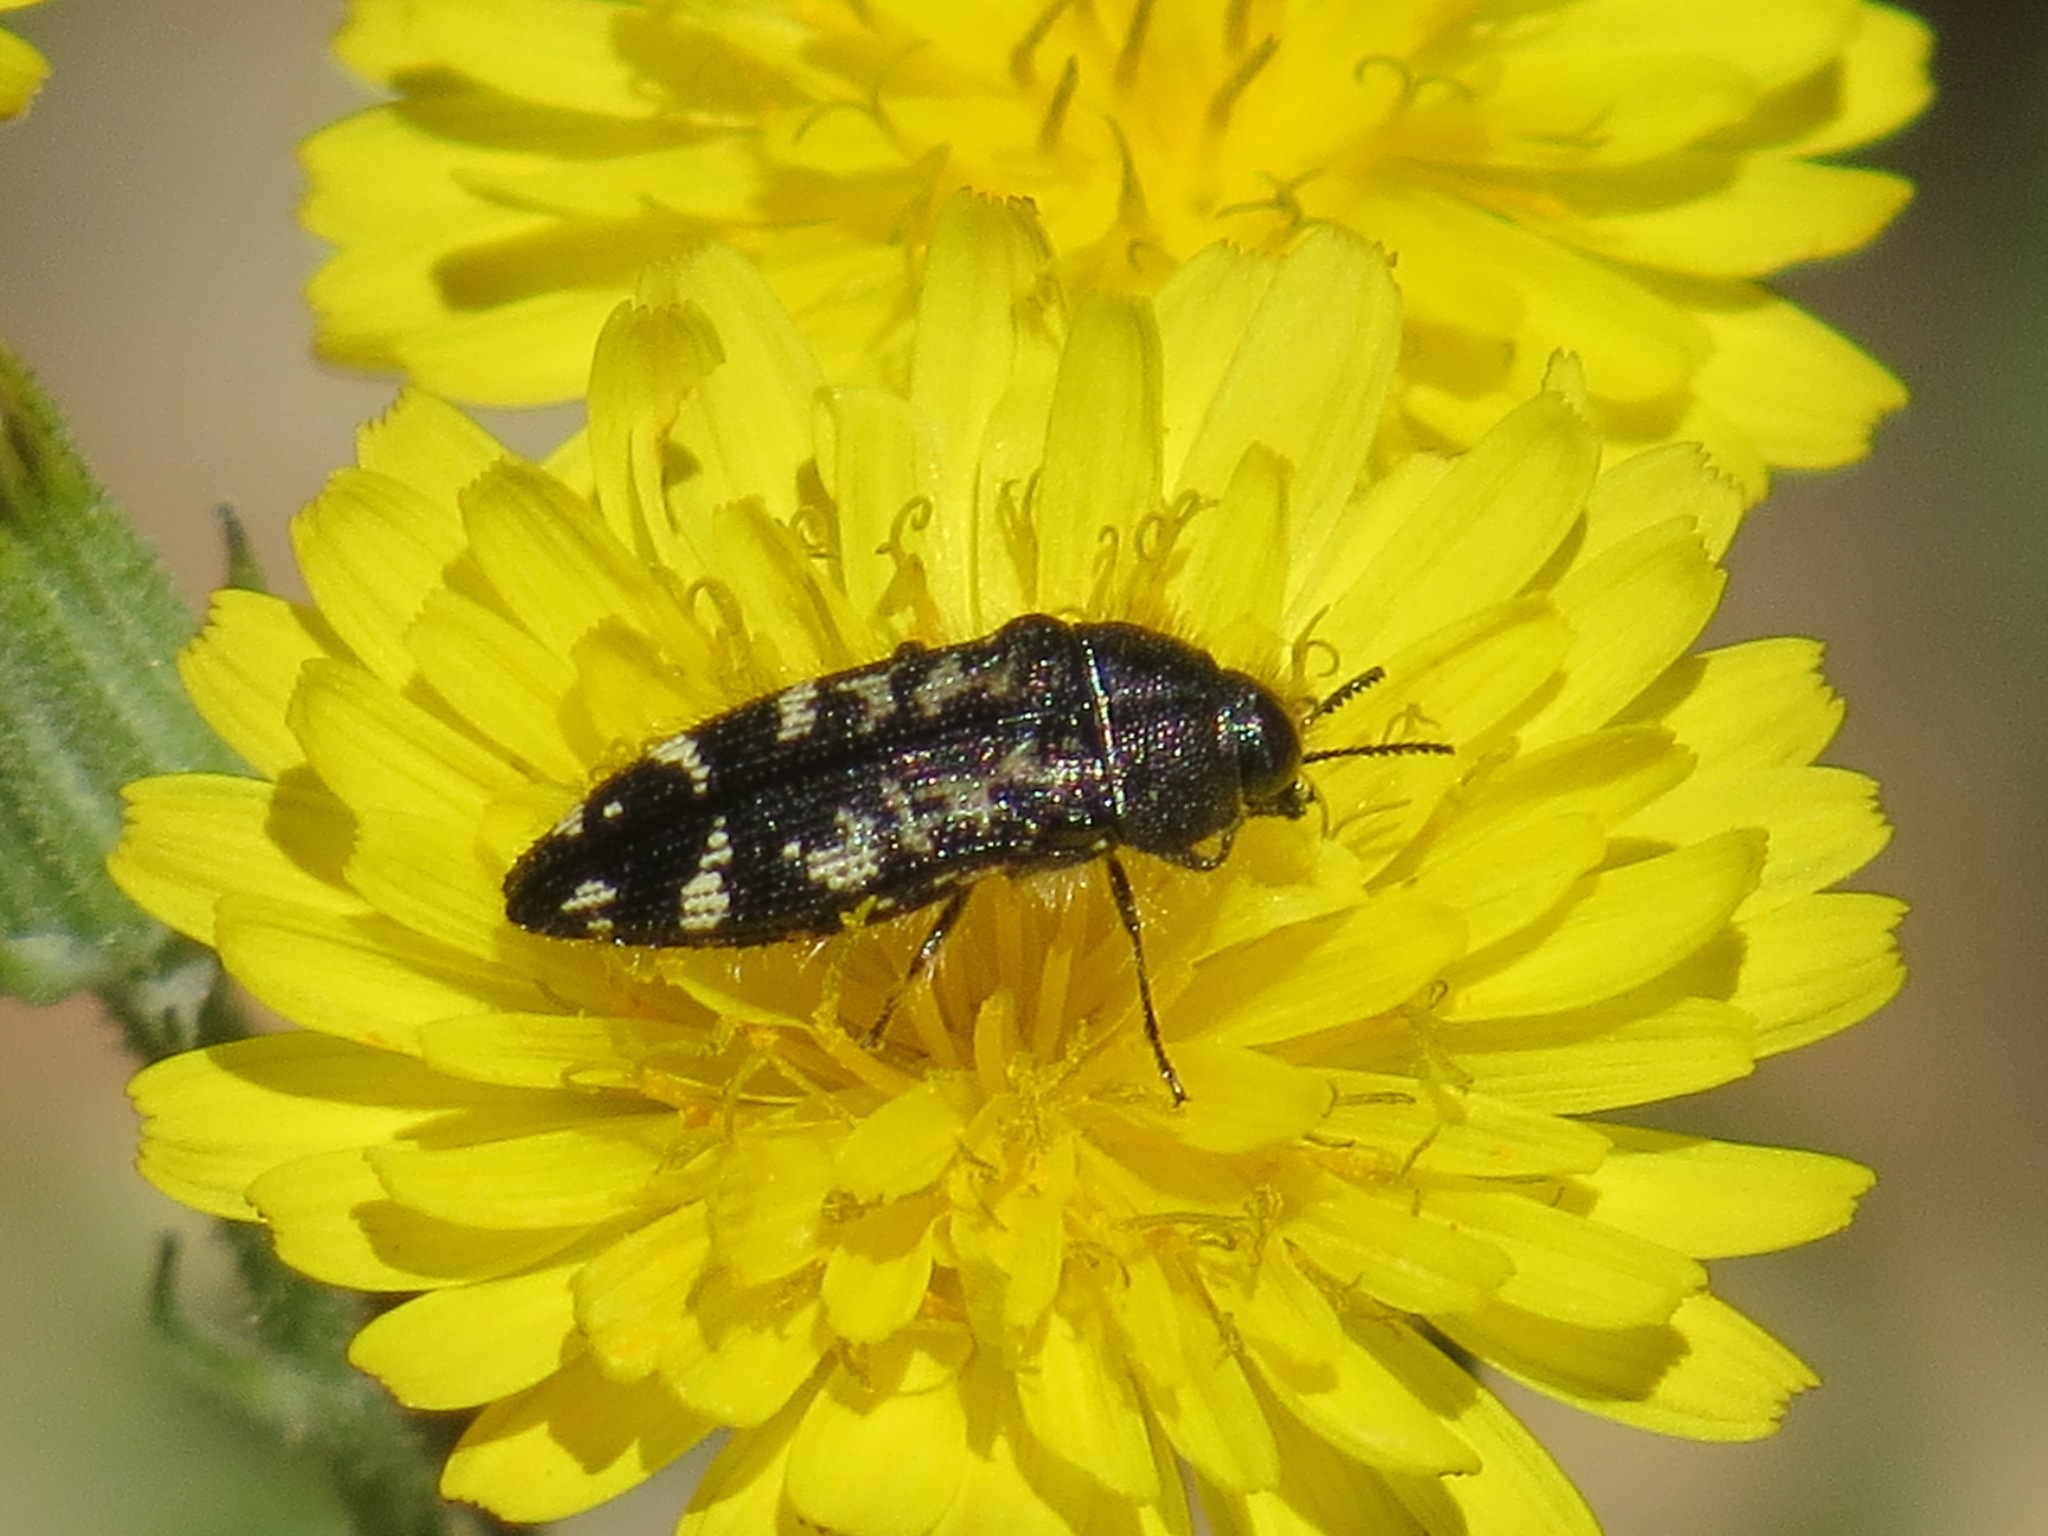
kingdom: Animalia
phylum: Arthropoda
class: Insecta
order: Coleoptera
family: Buprestidae
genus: Acmaeodera
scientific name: Acmaeodera connexa
